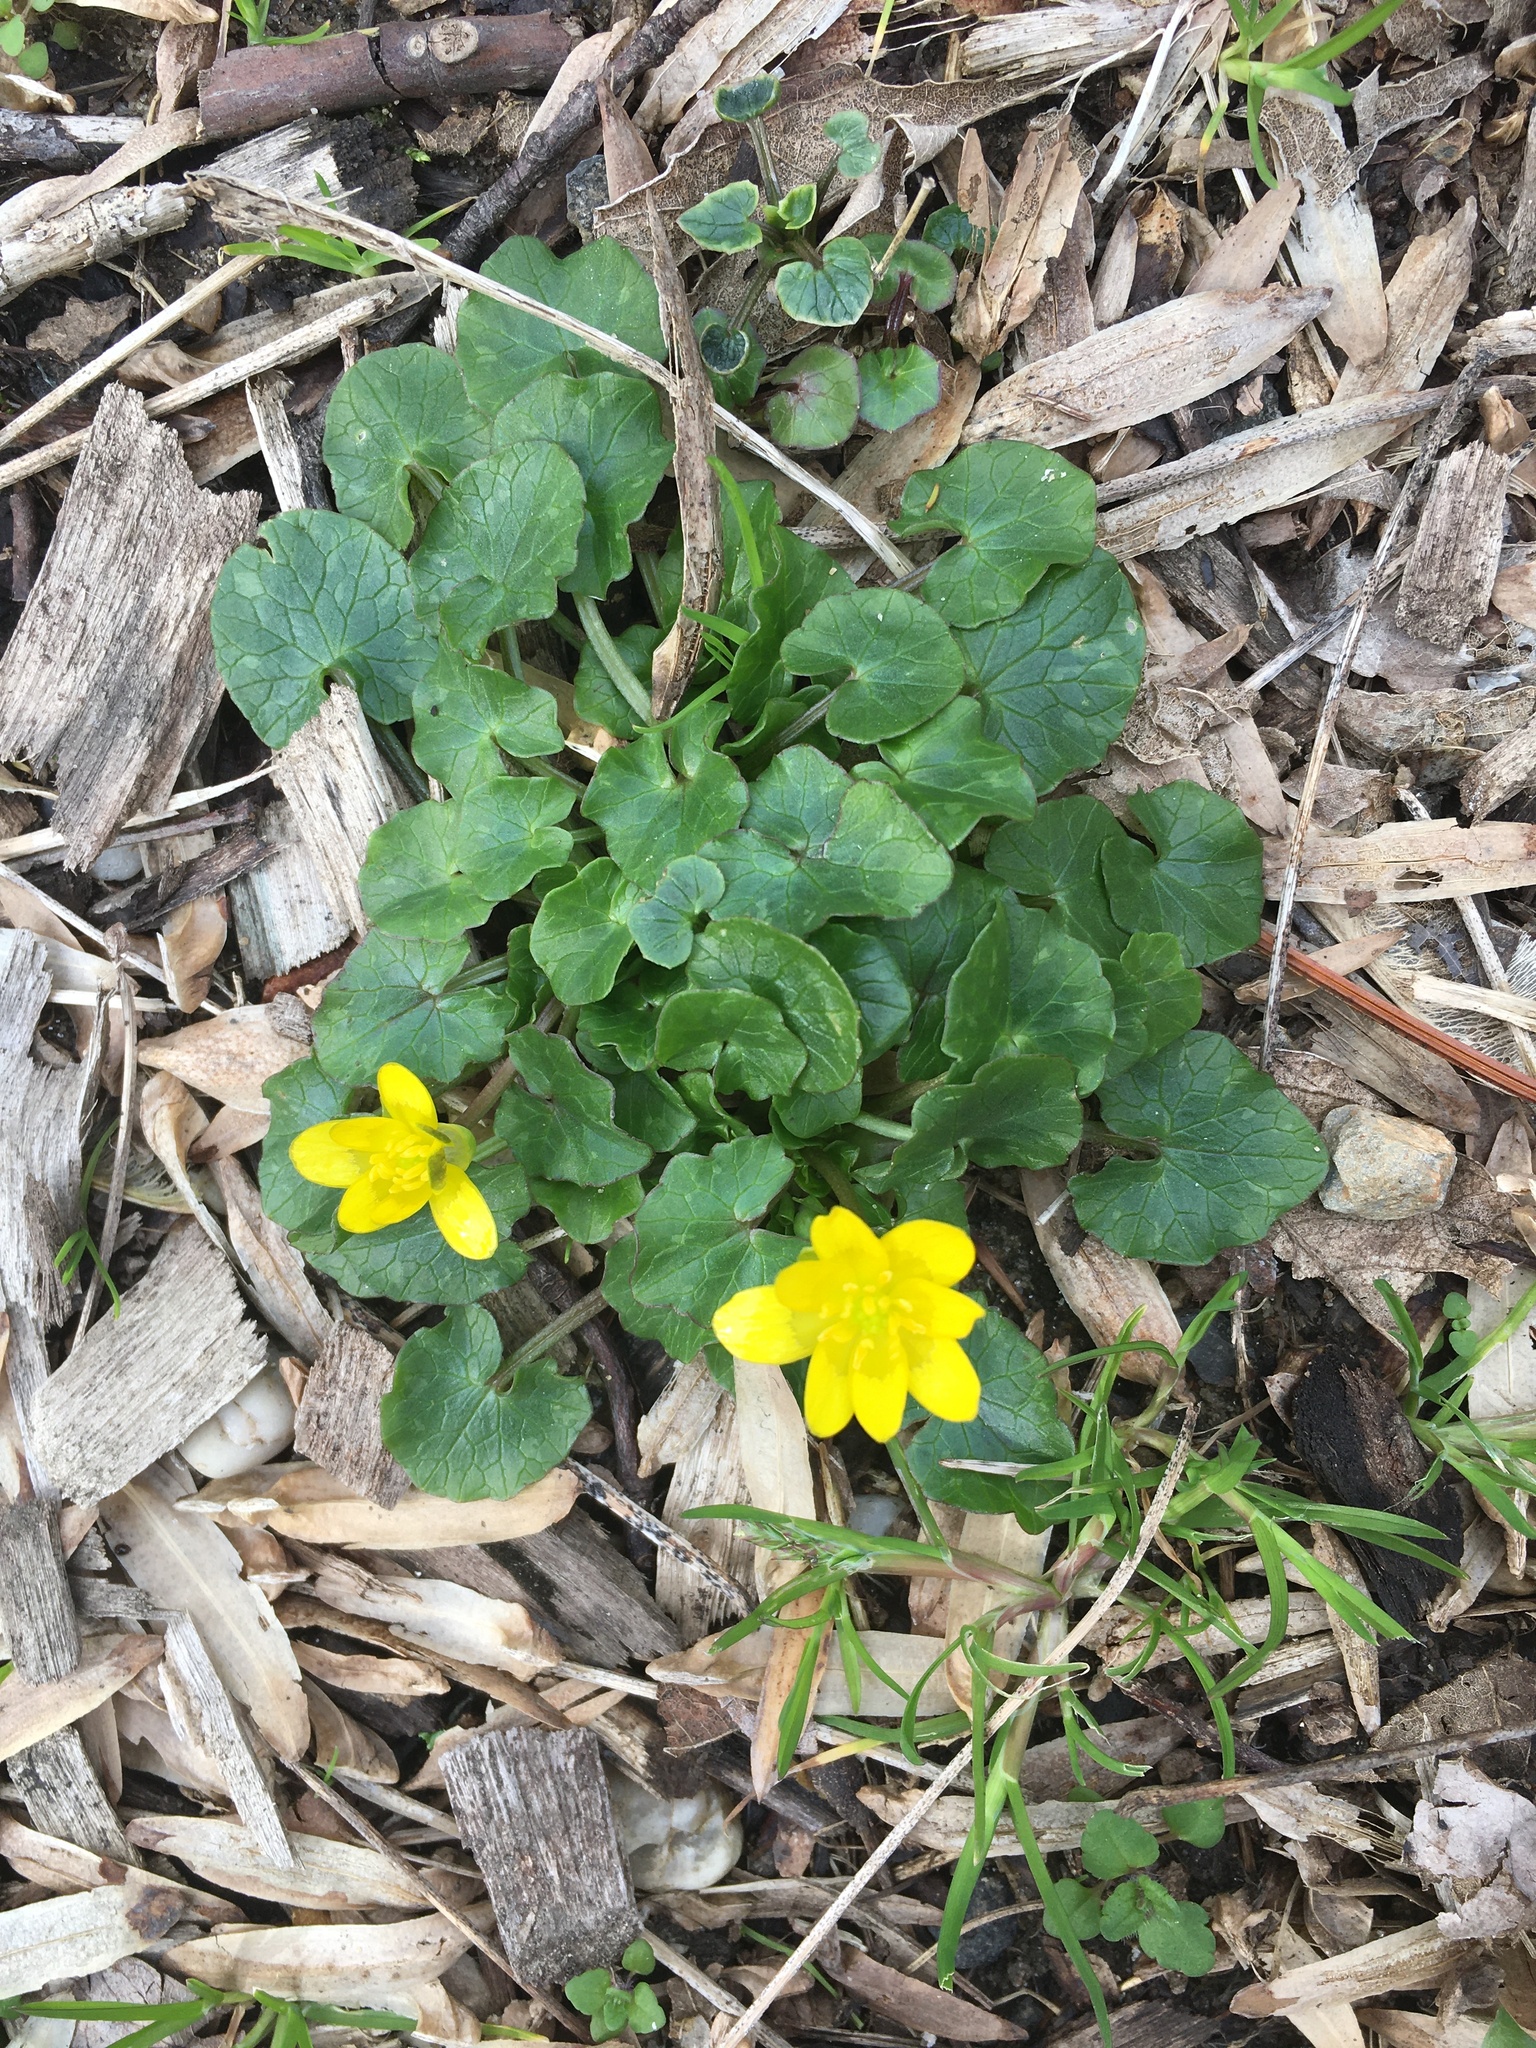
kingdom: Plantae
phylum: Tracheophyta
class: Magnoliopsida
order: Ranunculales
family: Ranunculaceae
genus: Ficaria
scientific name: Ficaria verna
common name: Lesser celandine
